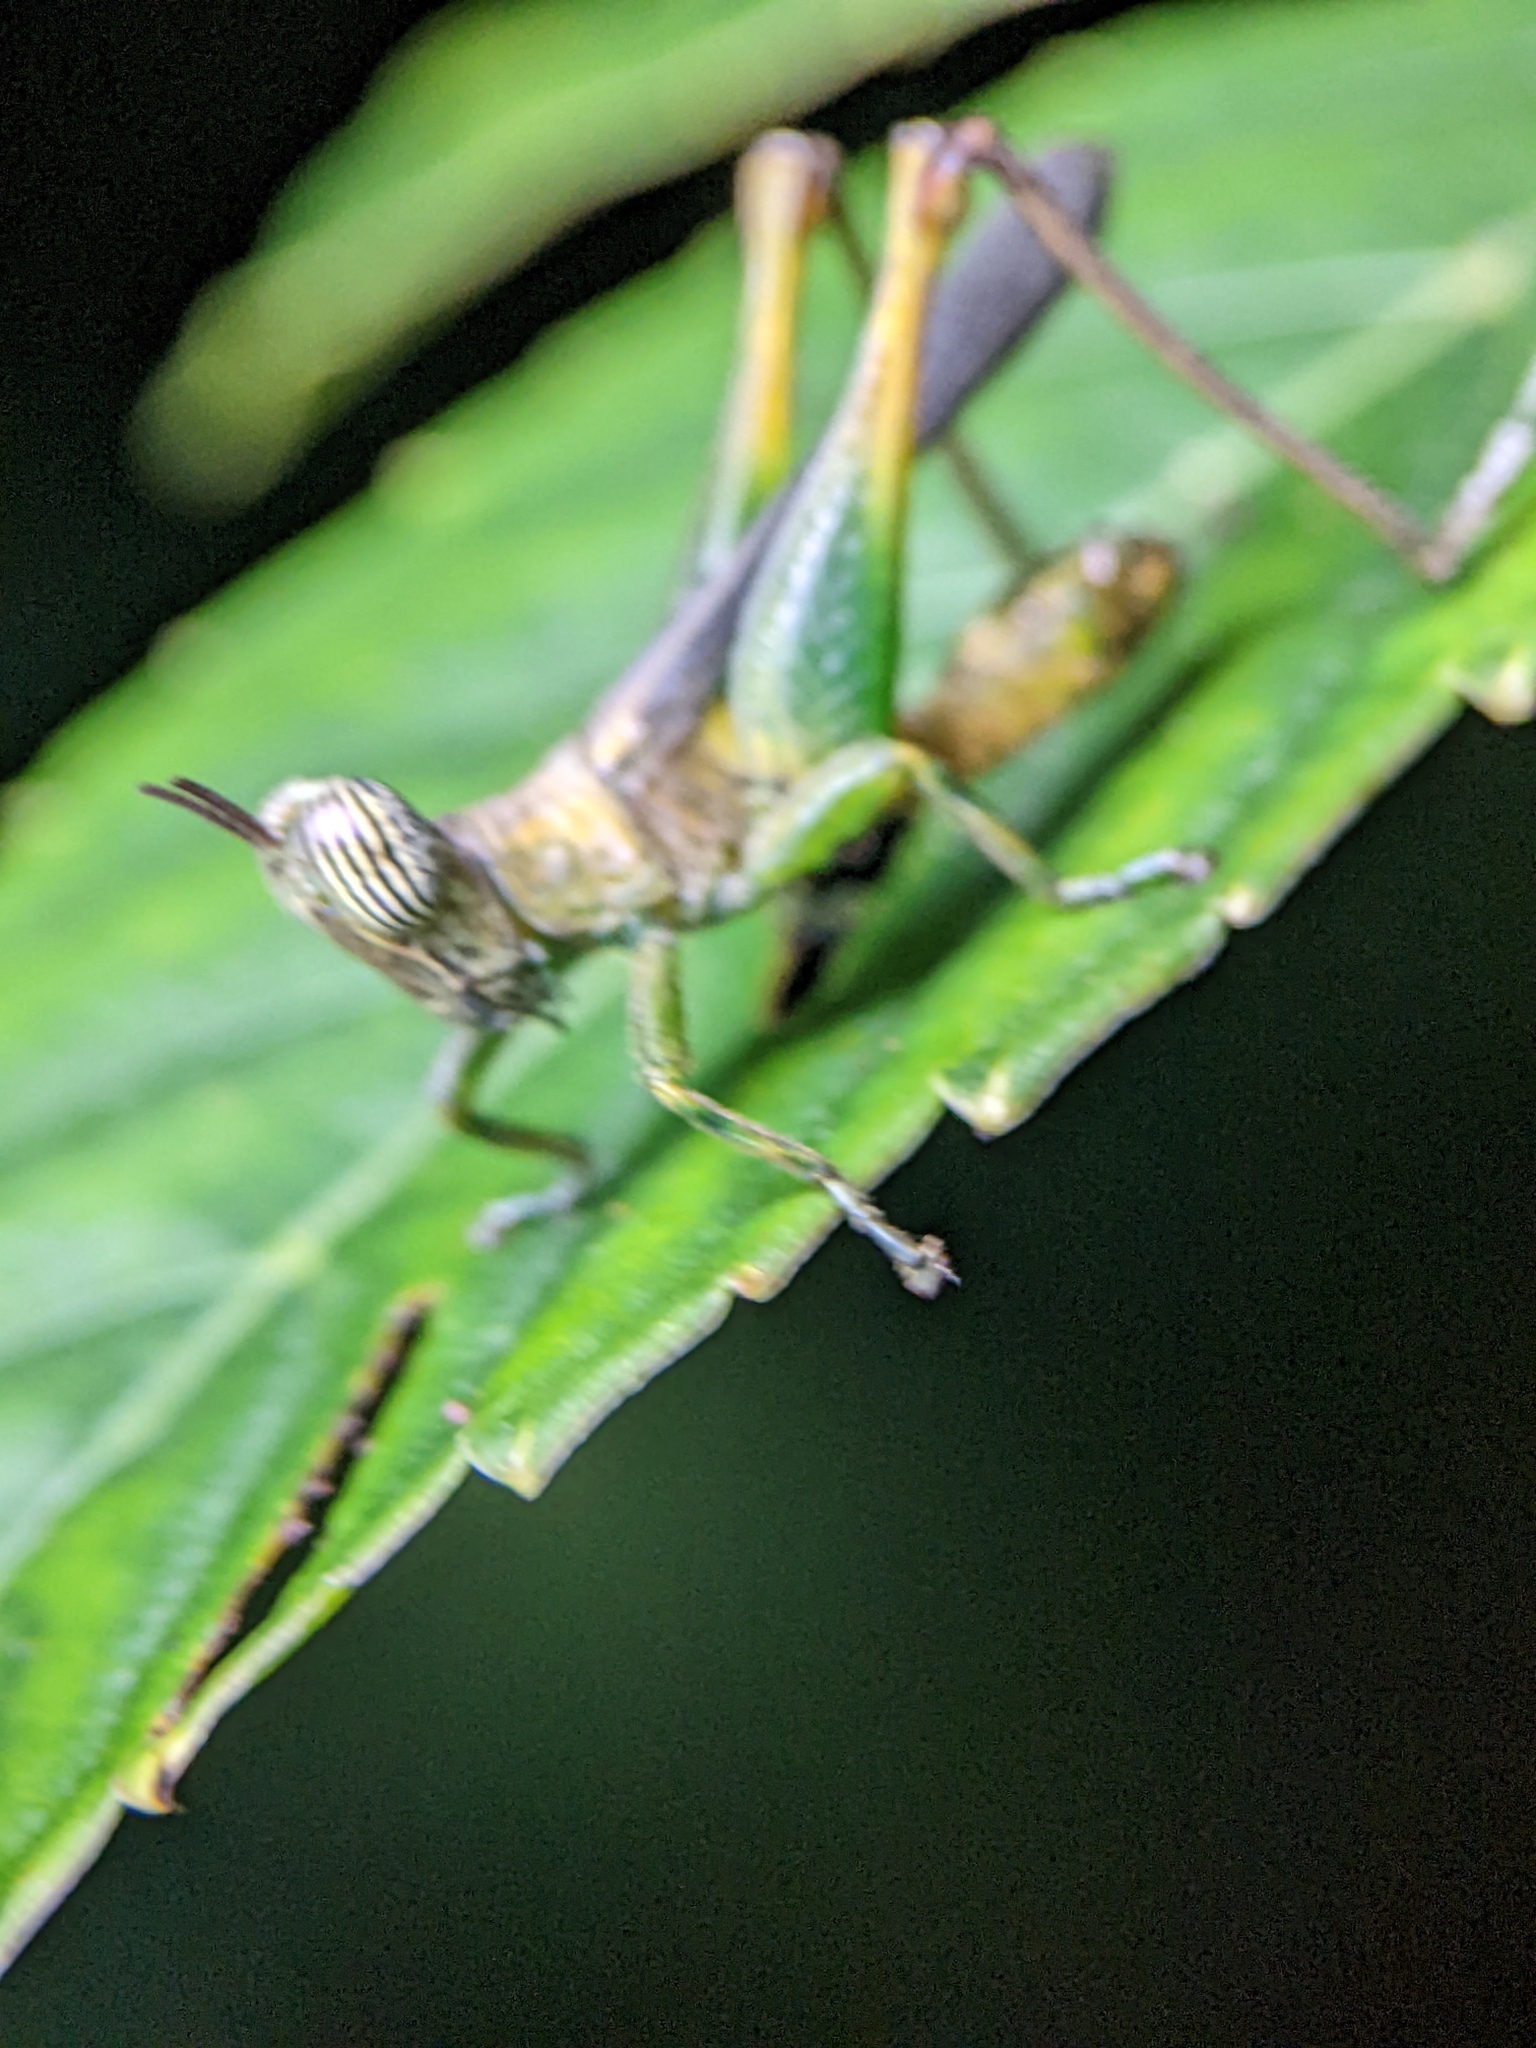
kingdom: Animalia
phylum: Arthropoda
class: Insecta
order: Orthoptera
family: Chorotypidae
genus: Uvarovia
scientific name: Uvarovia longipennis
